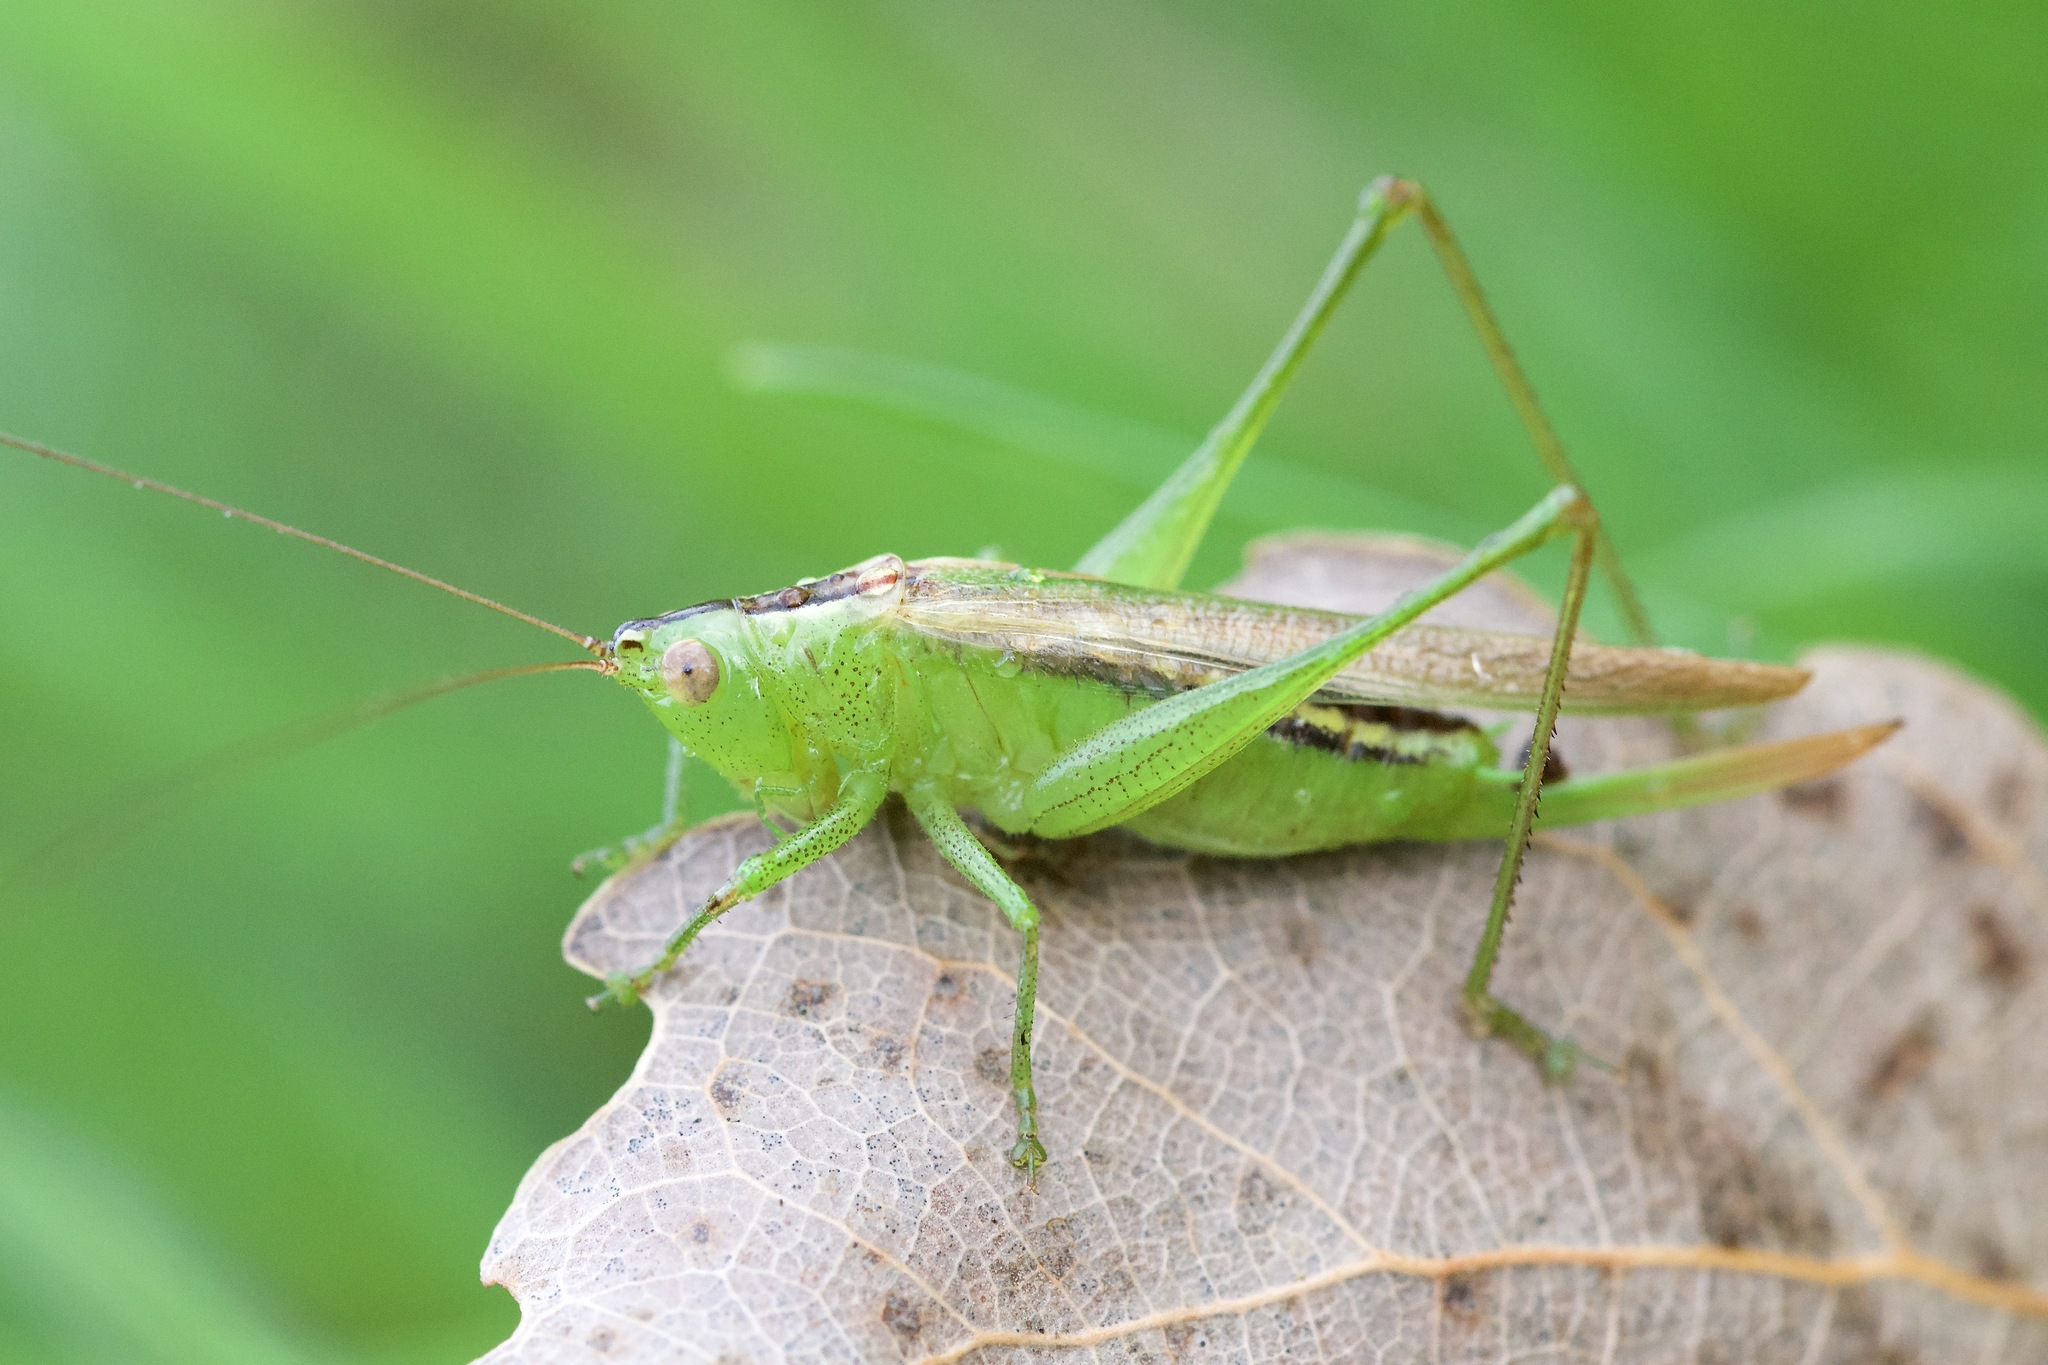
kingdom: Animalia
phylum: Arthropoda
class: Insecta
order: Orthoptera
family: Tettigoniidae
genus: Conocephalus
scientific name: Conocephalus fasciatus
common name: Slender meadow katydid
